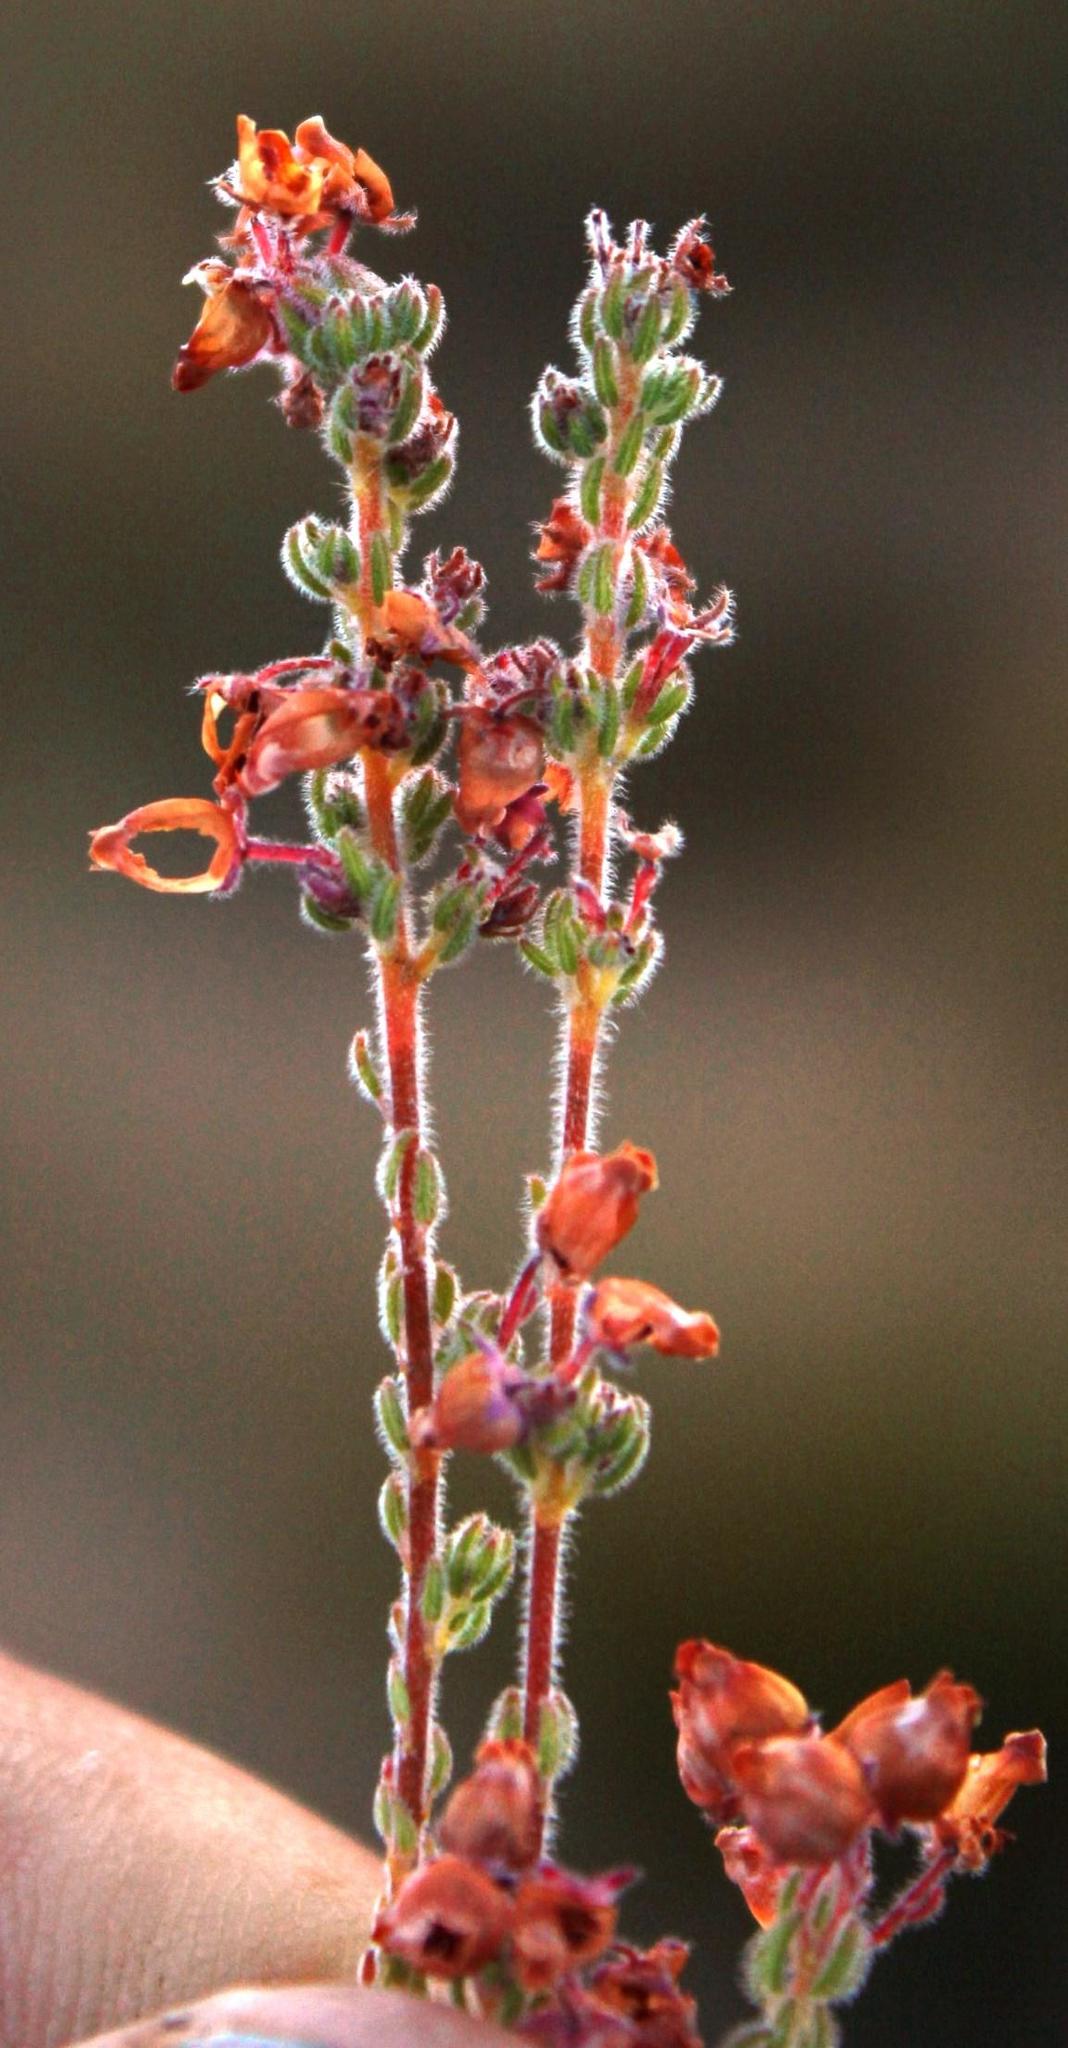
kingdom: Plantae
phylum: Tracheophyta
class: Magnoliopsida
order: Ericales
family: Ericaceae
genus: Erica
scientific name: Erica bergiana
